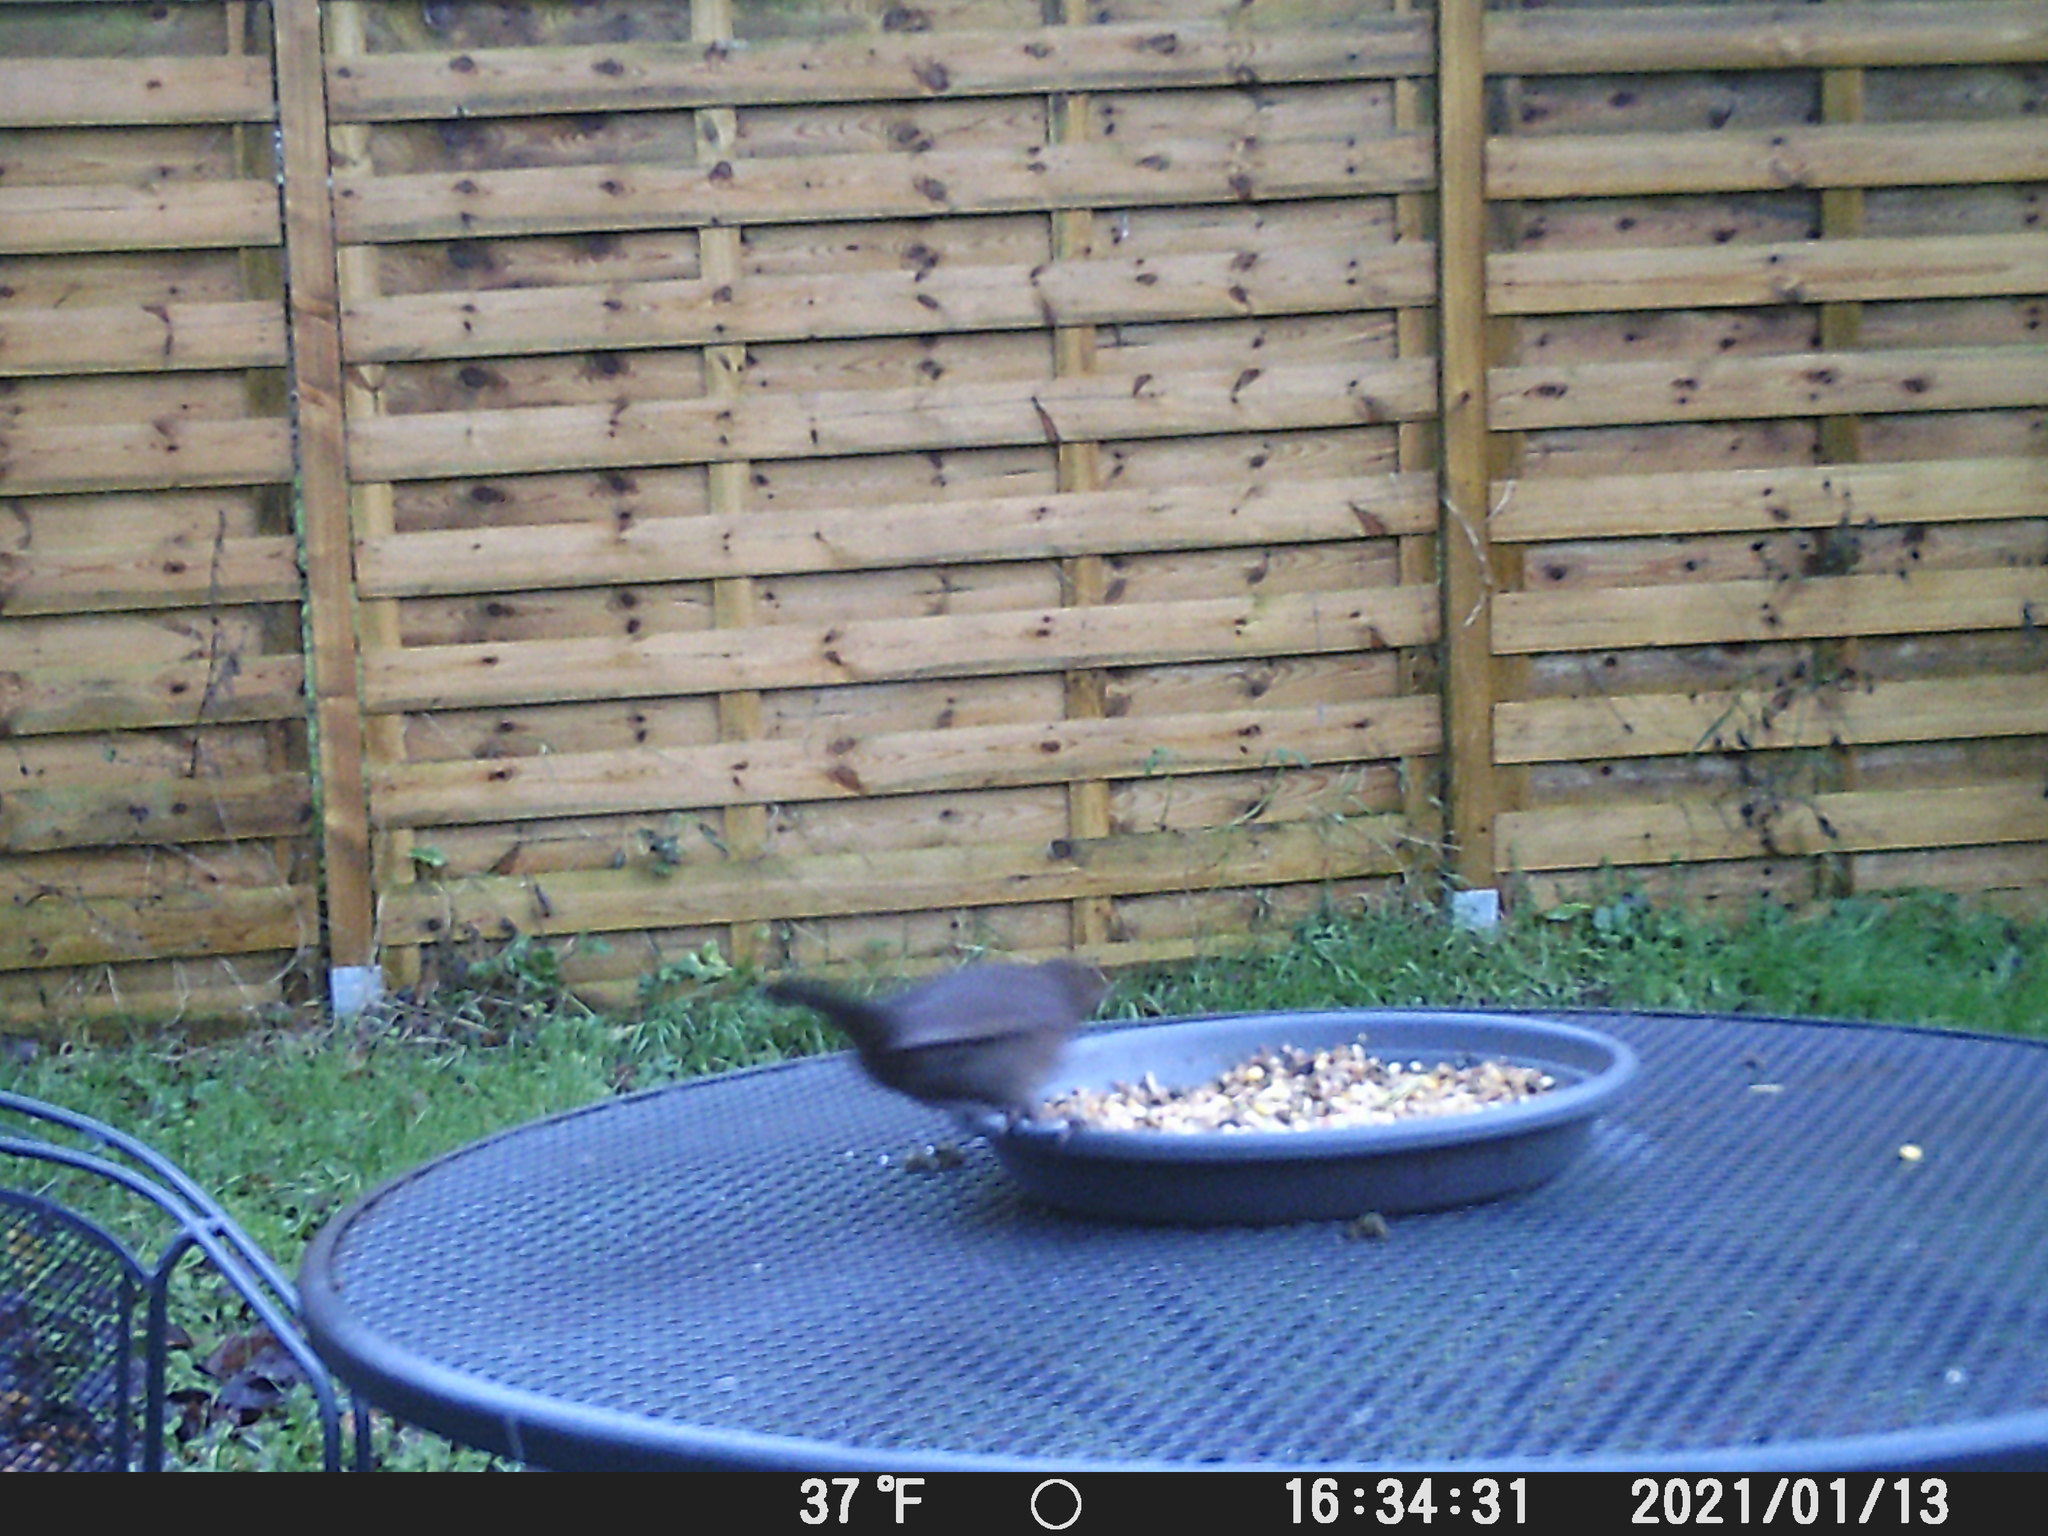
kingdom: Animalia
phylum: Chordata
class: Aves
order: Passeriformes
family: Turdidae
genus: Turdus
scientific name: Turdus merula
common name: Common blackbird
